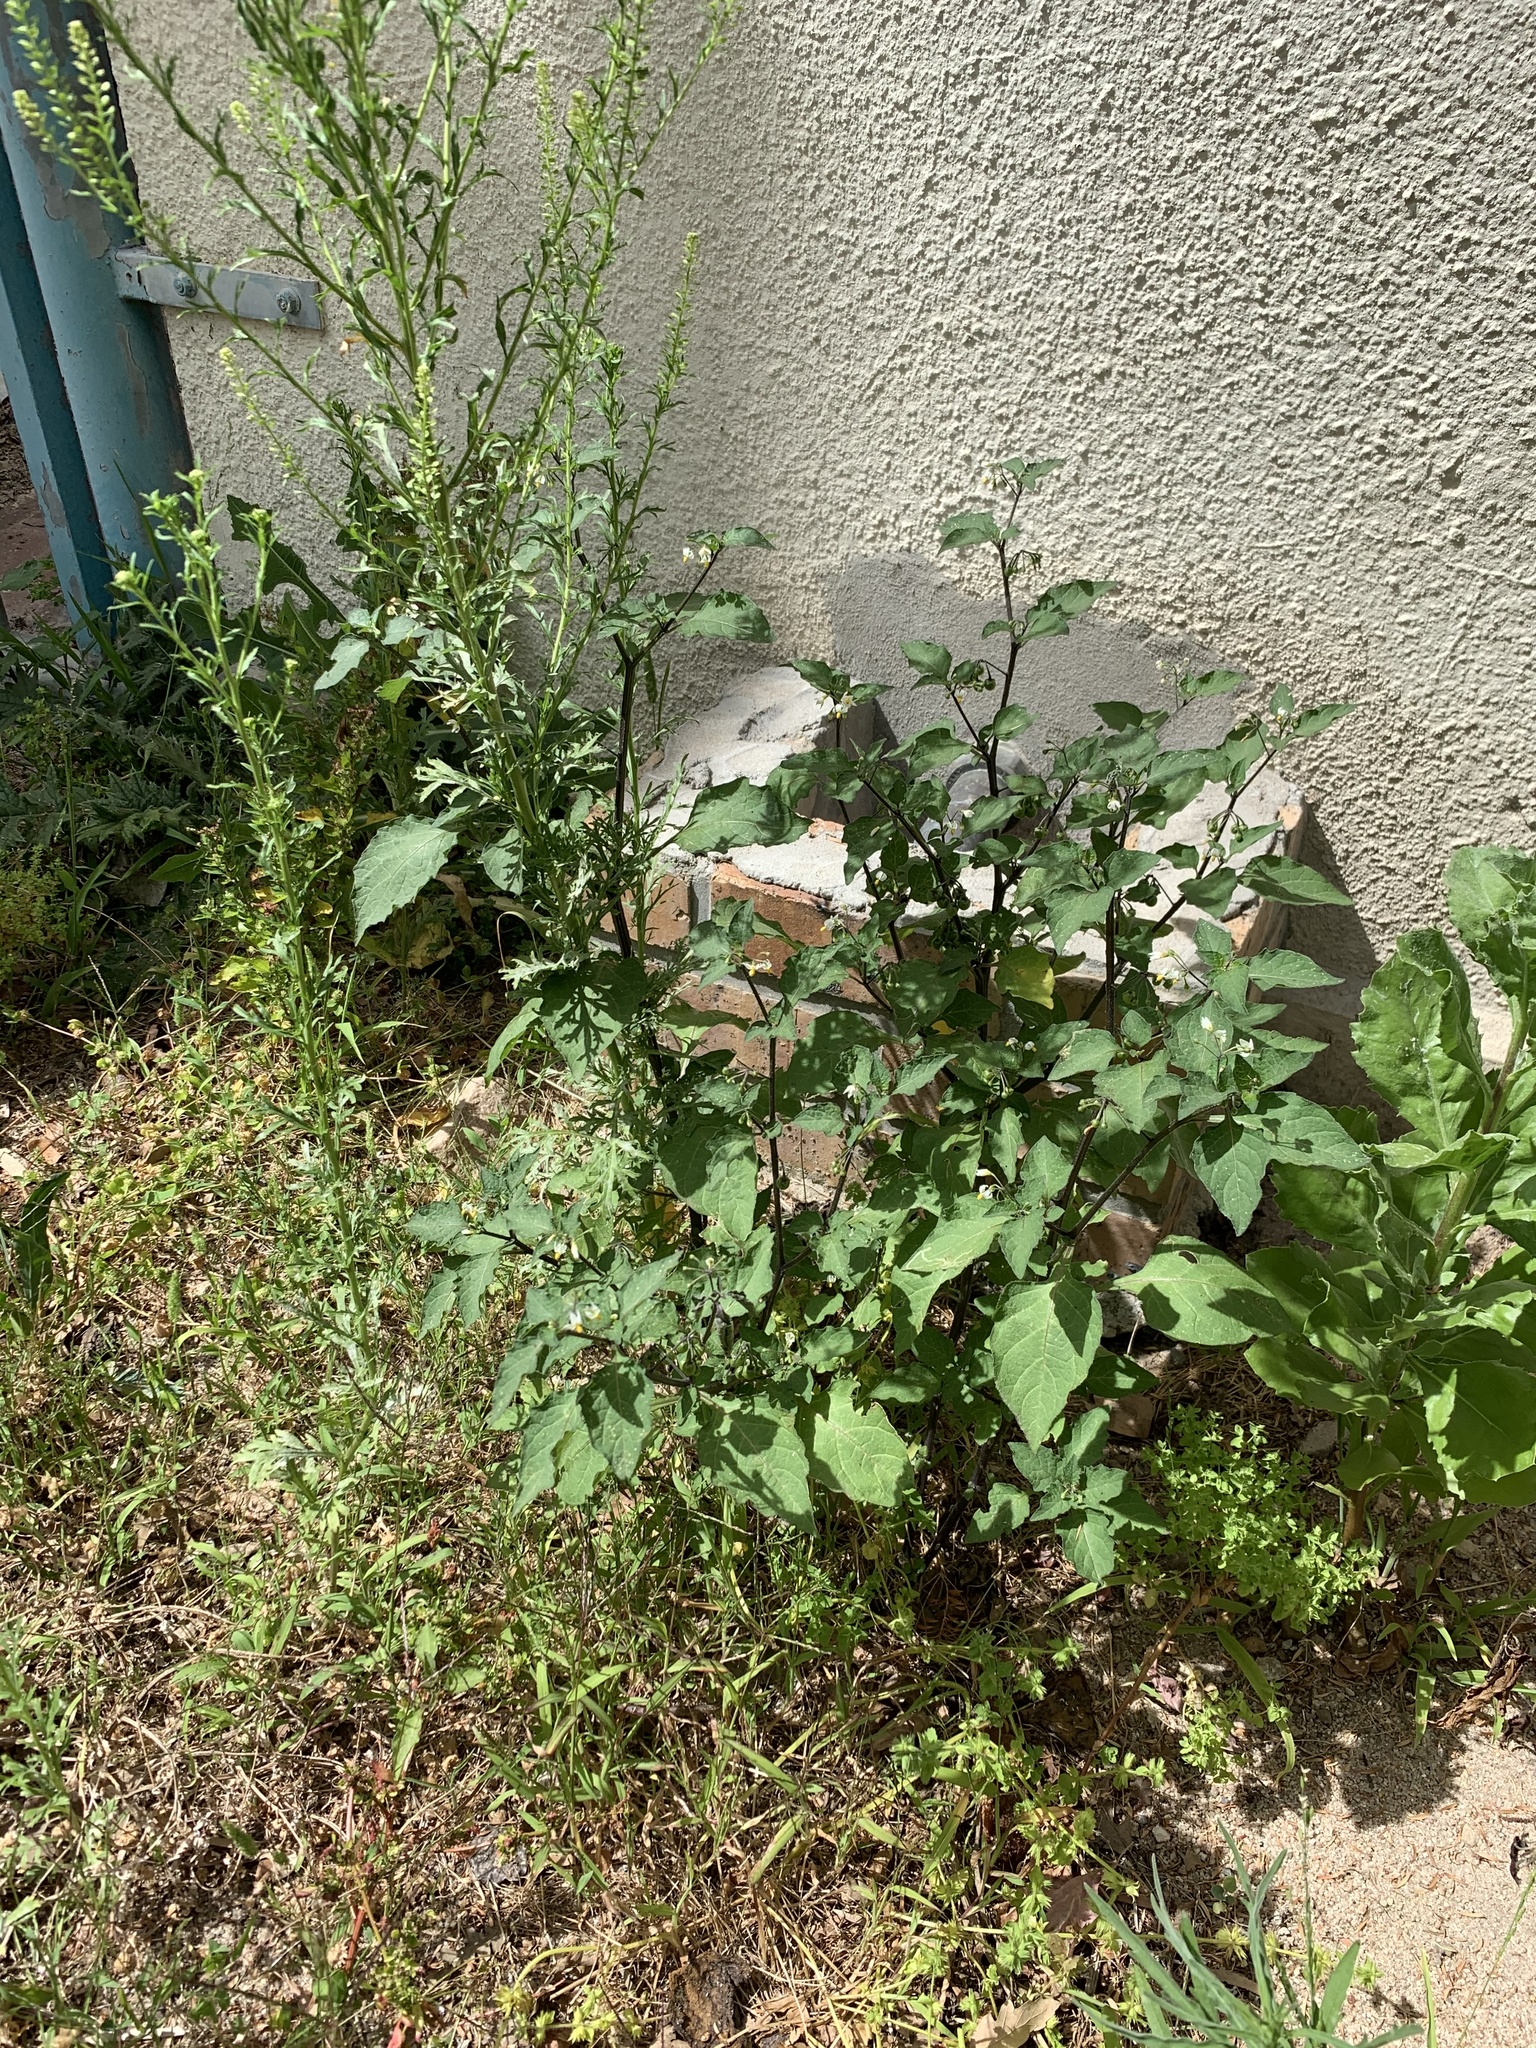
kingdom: Plantae
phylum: Tracheophyta
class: Magnoliopsida
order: Solanales
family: Solanaceae
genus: Solanum
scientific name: Solanum nigrum
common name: Black nightshade
